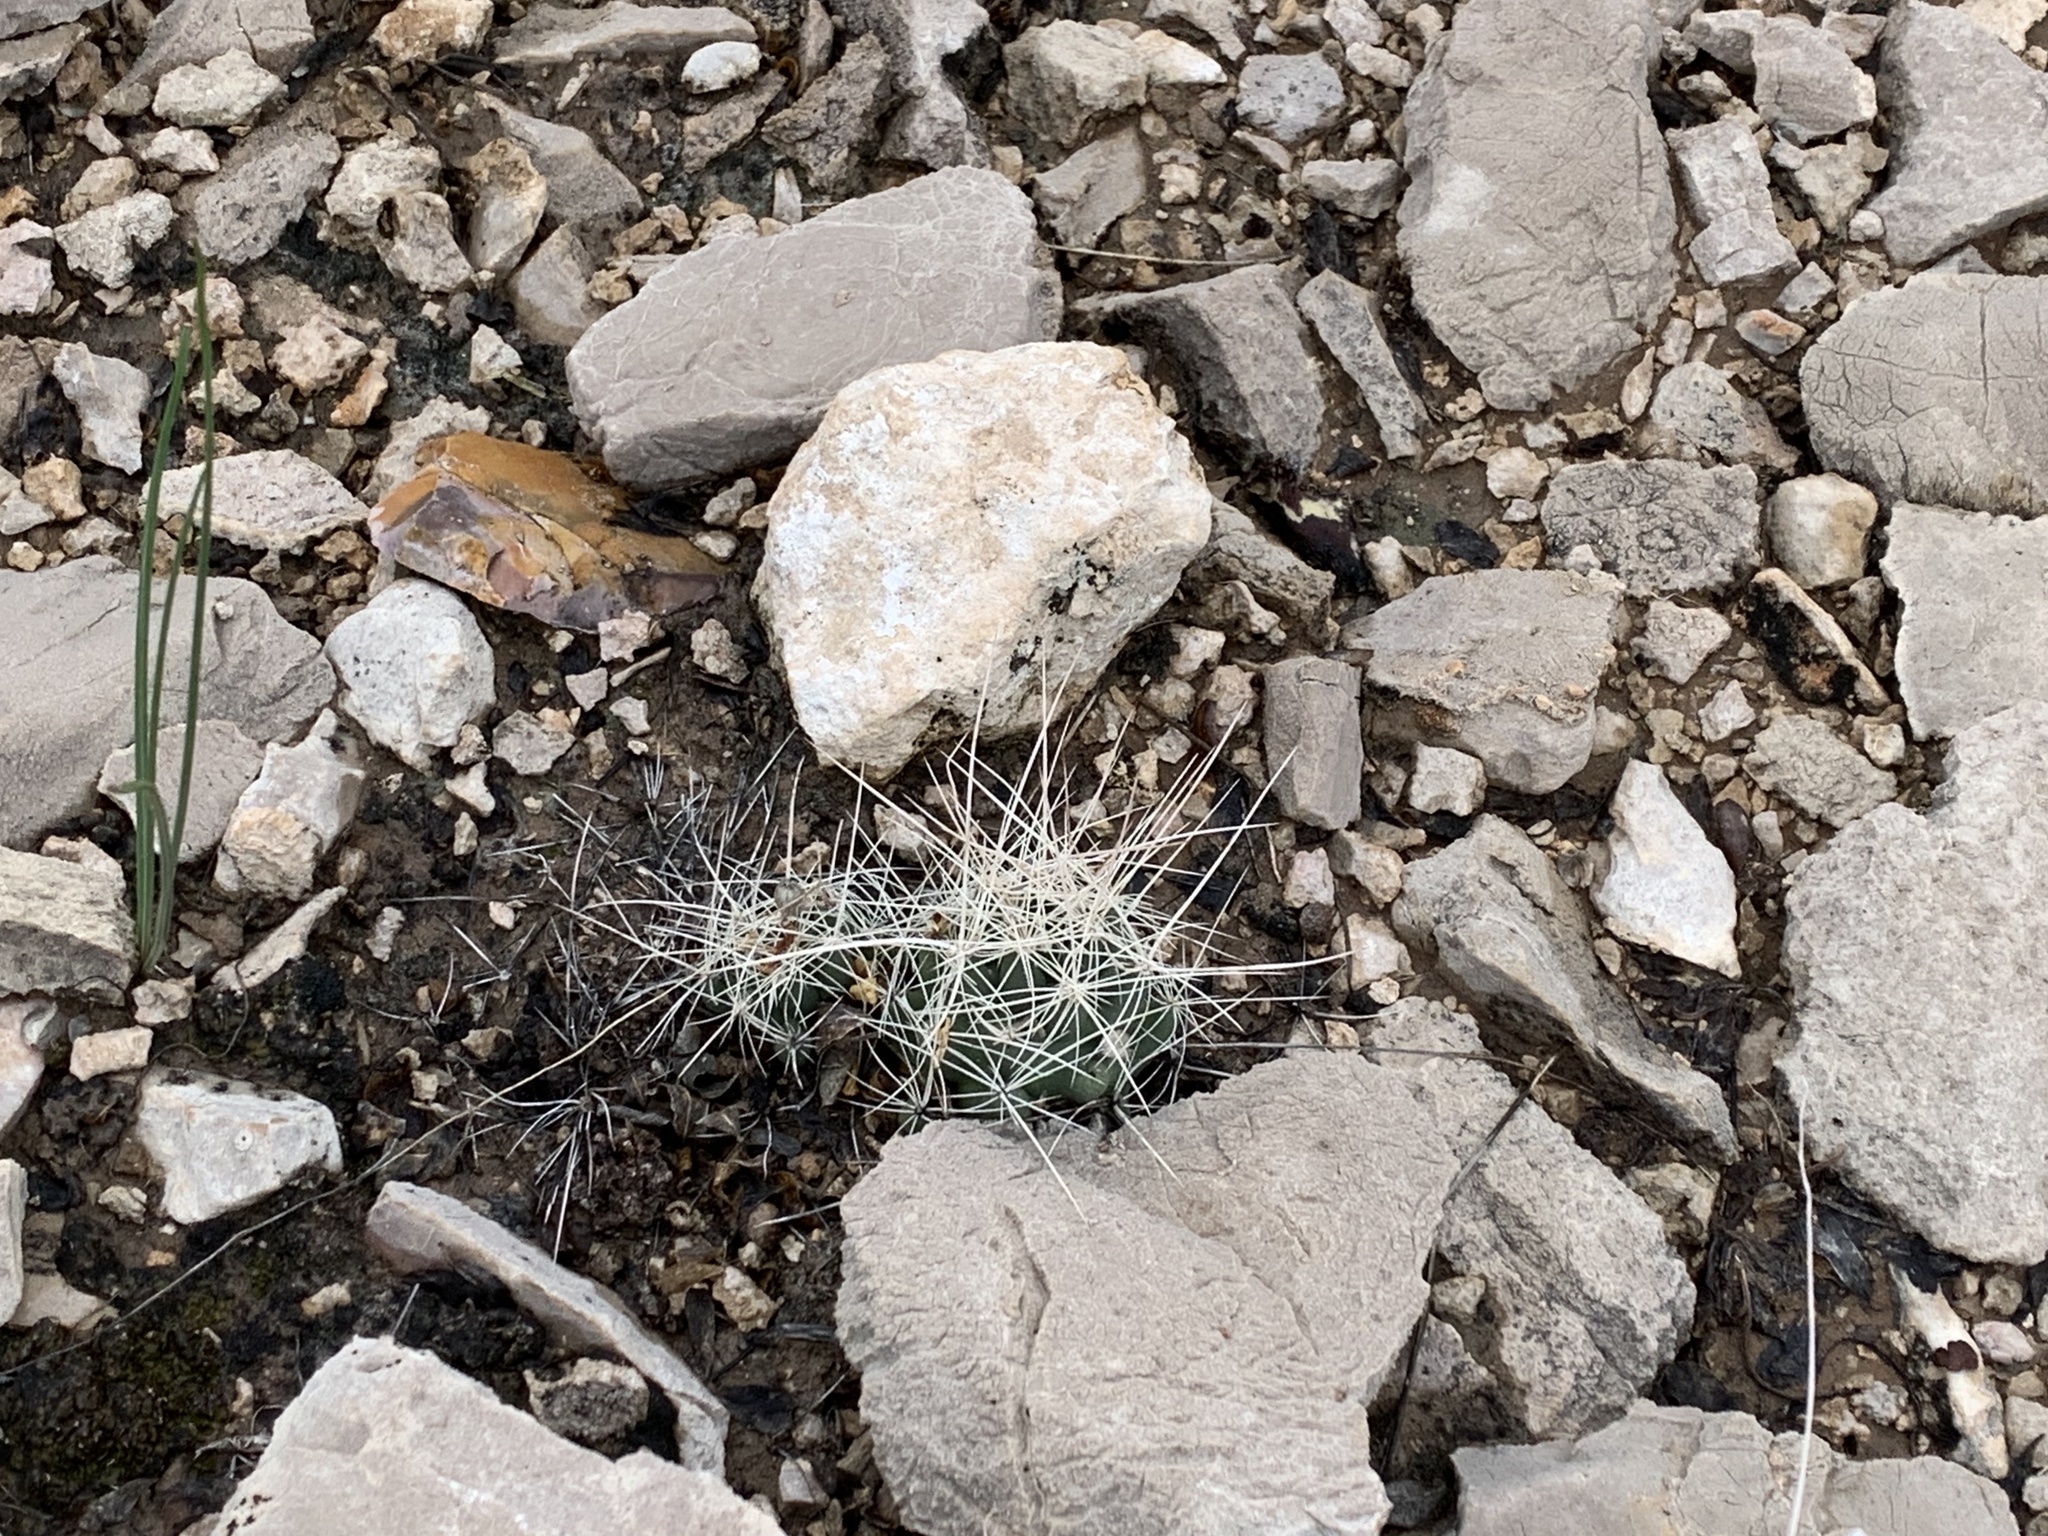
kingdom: Plantae
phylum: Tracheophyta
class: Magnoliopsida
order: Caryophyllales
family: Cactaceae
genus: Coryphantha
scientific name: Coryphantha macromeris
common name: Nipple beehive cactus
